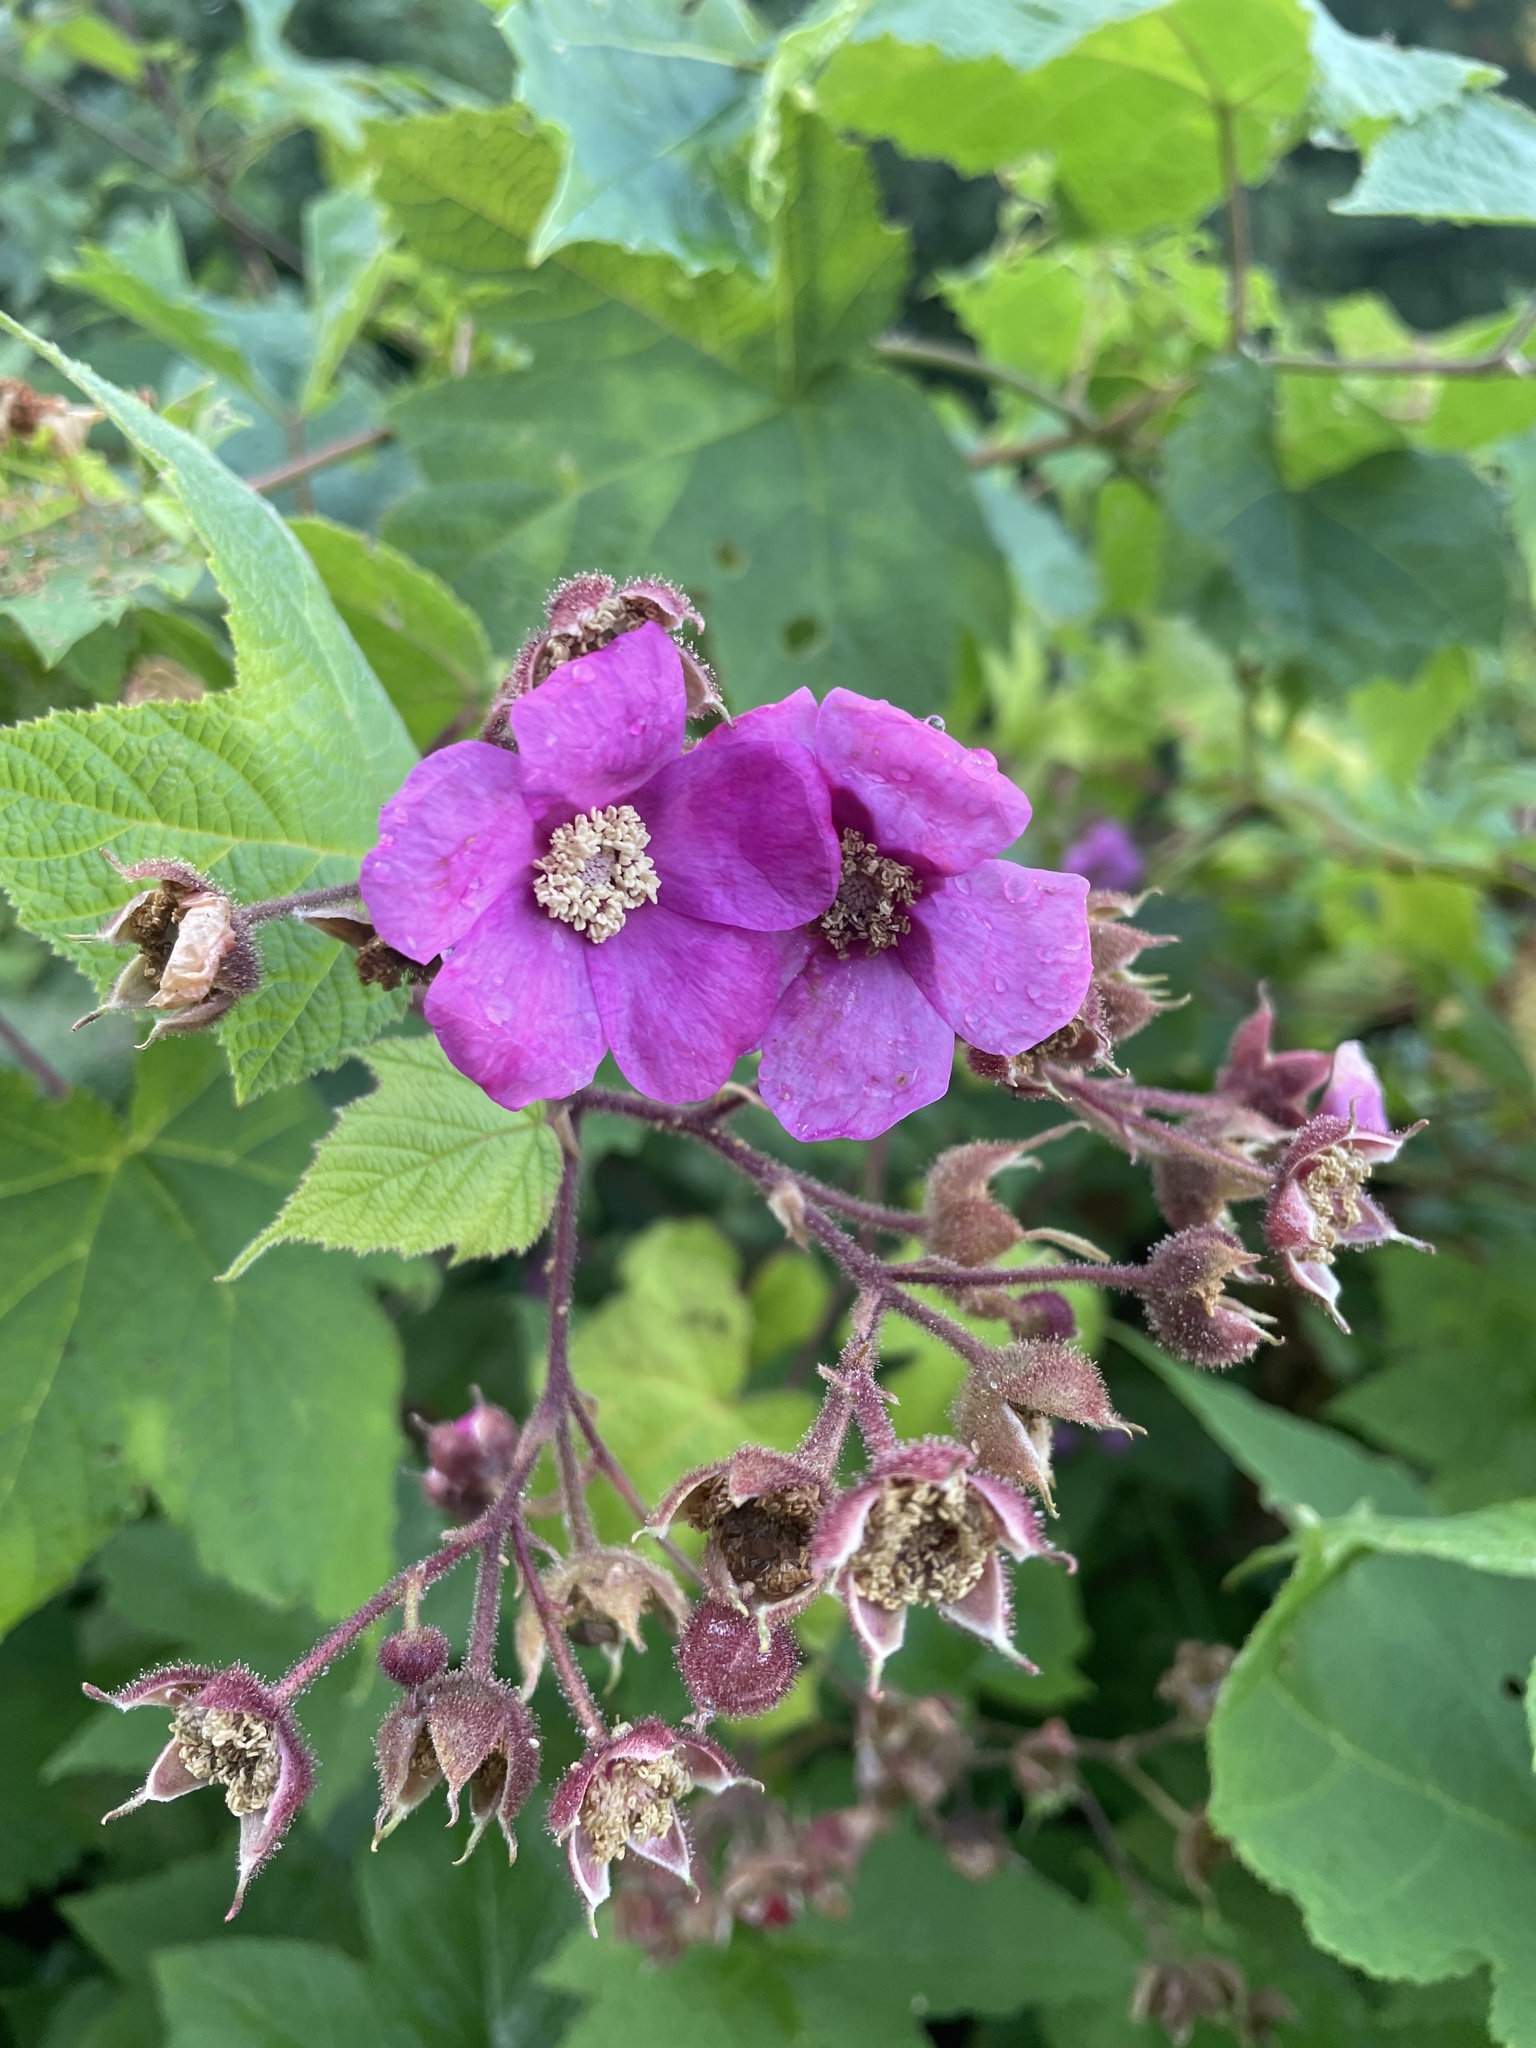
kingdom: Plantae
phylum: Tracheophyta
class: Magnoliopsida
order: Rosales
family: Rosaceae
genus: Rubus
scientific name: Rubus odoratus
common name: Purple-flowered raspberry
